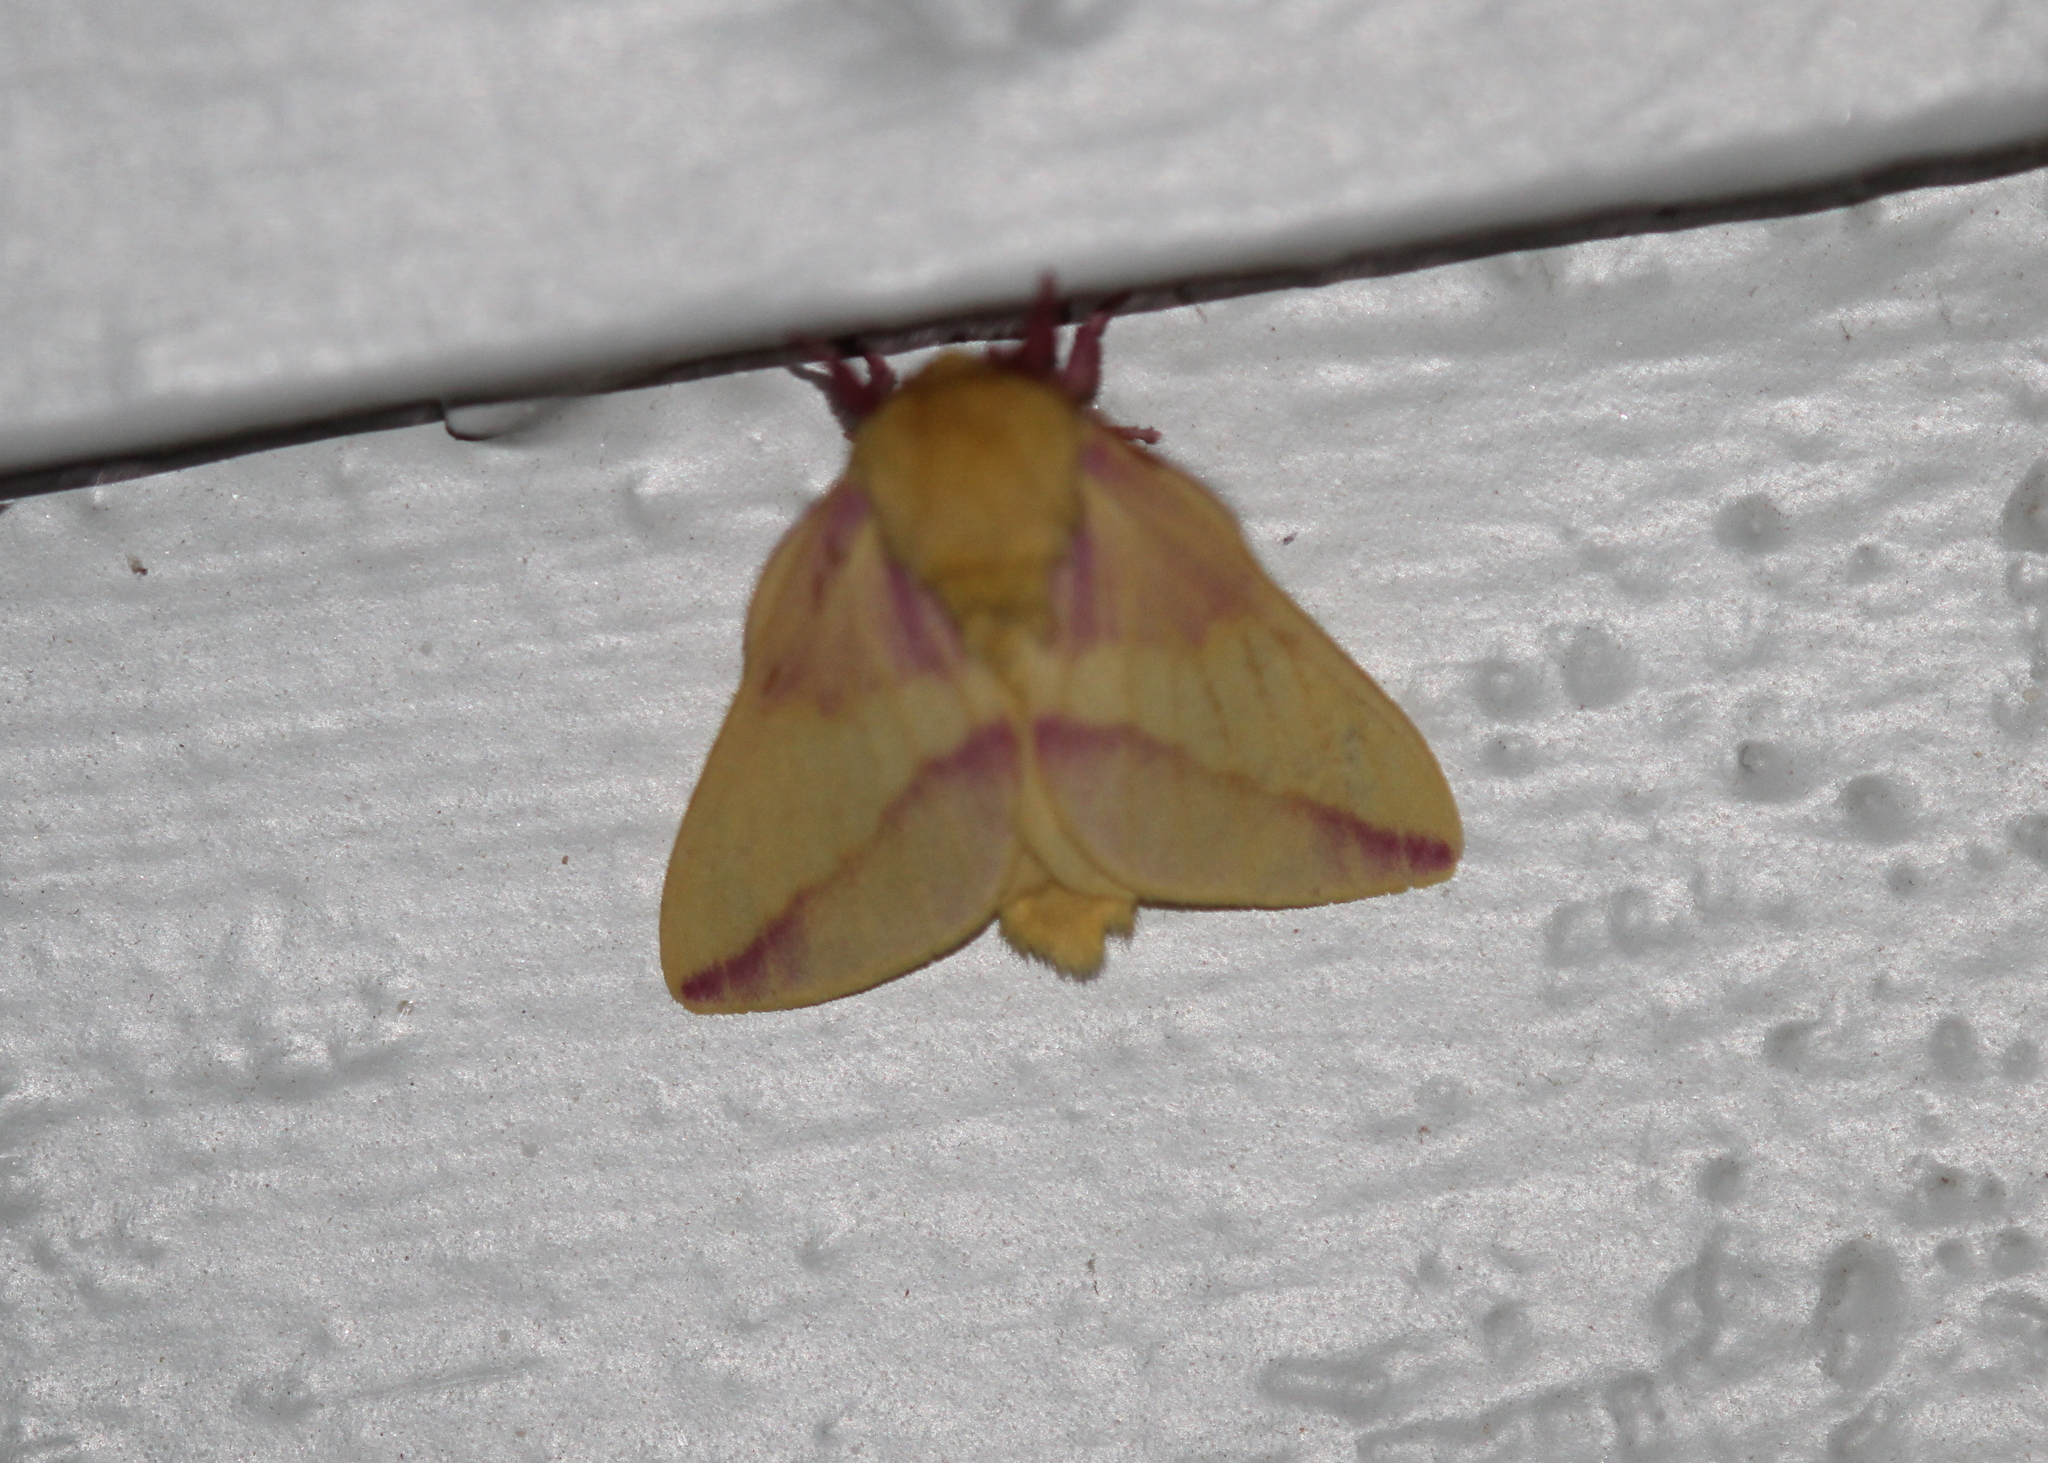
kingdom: Animalia
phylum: Arthropoda
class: Insecta
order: Lepidoptera
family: Saturniidae
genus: Dryocampa
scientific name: Dryocampa rubicunda
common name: Rosy maple moth
